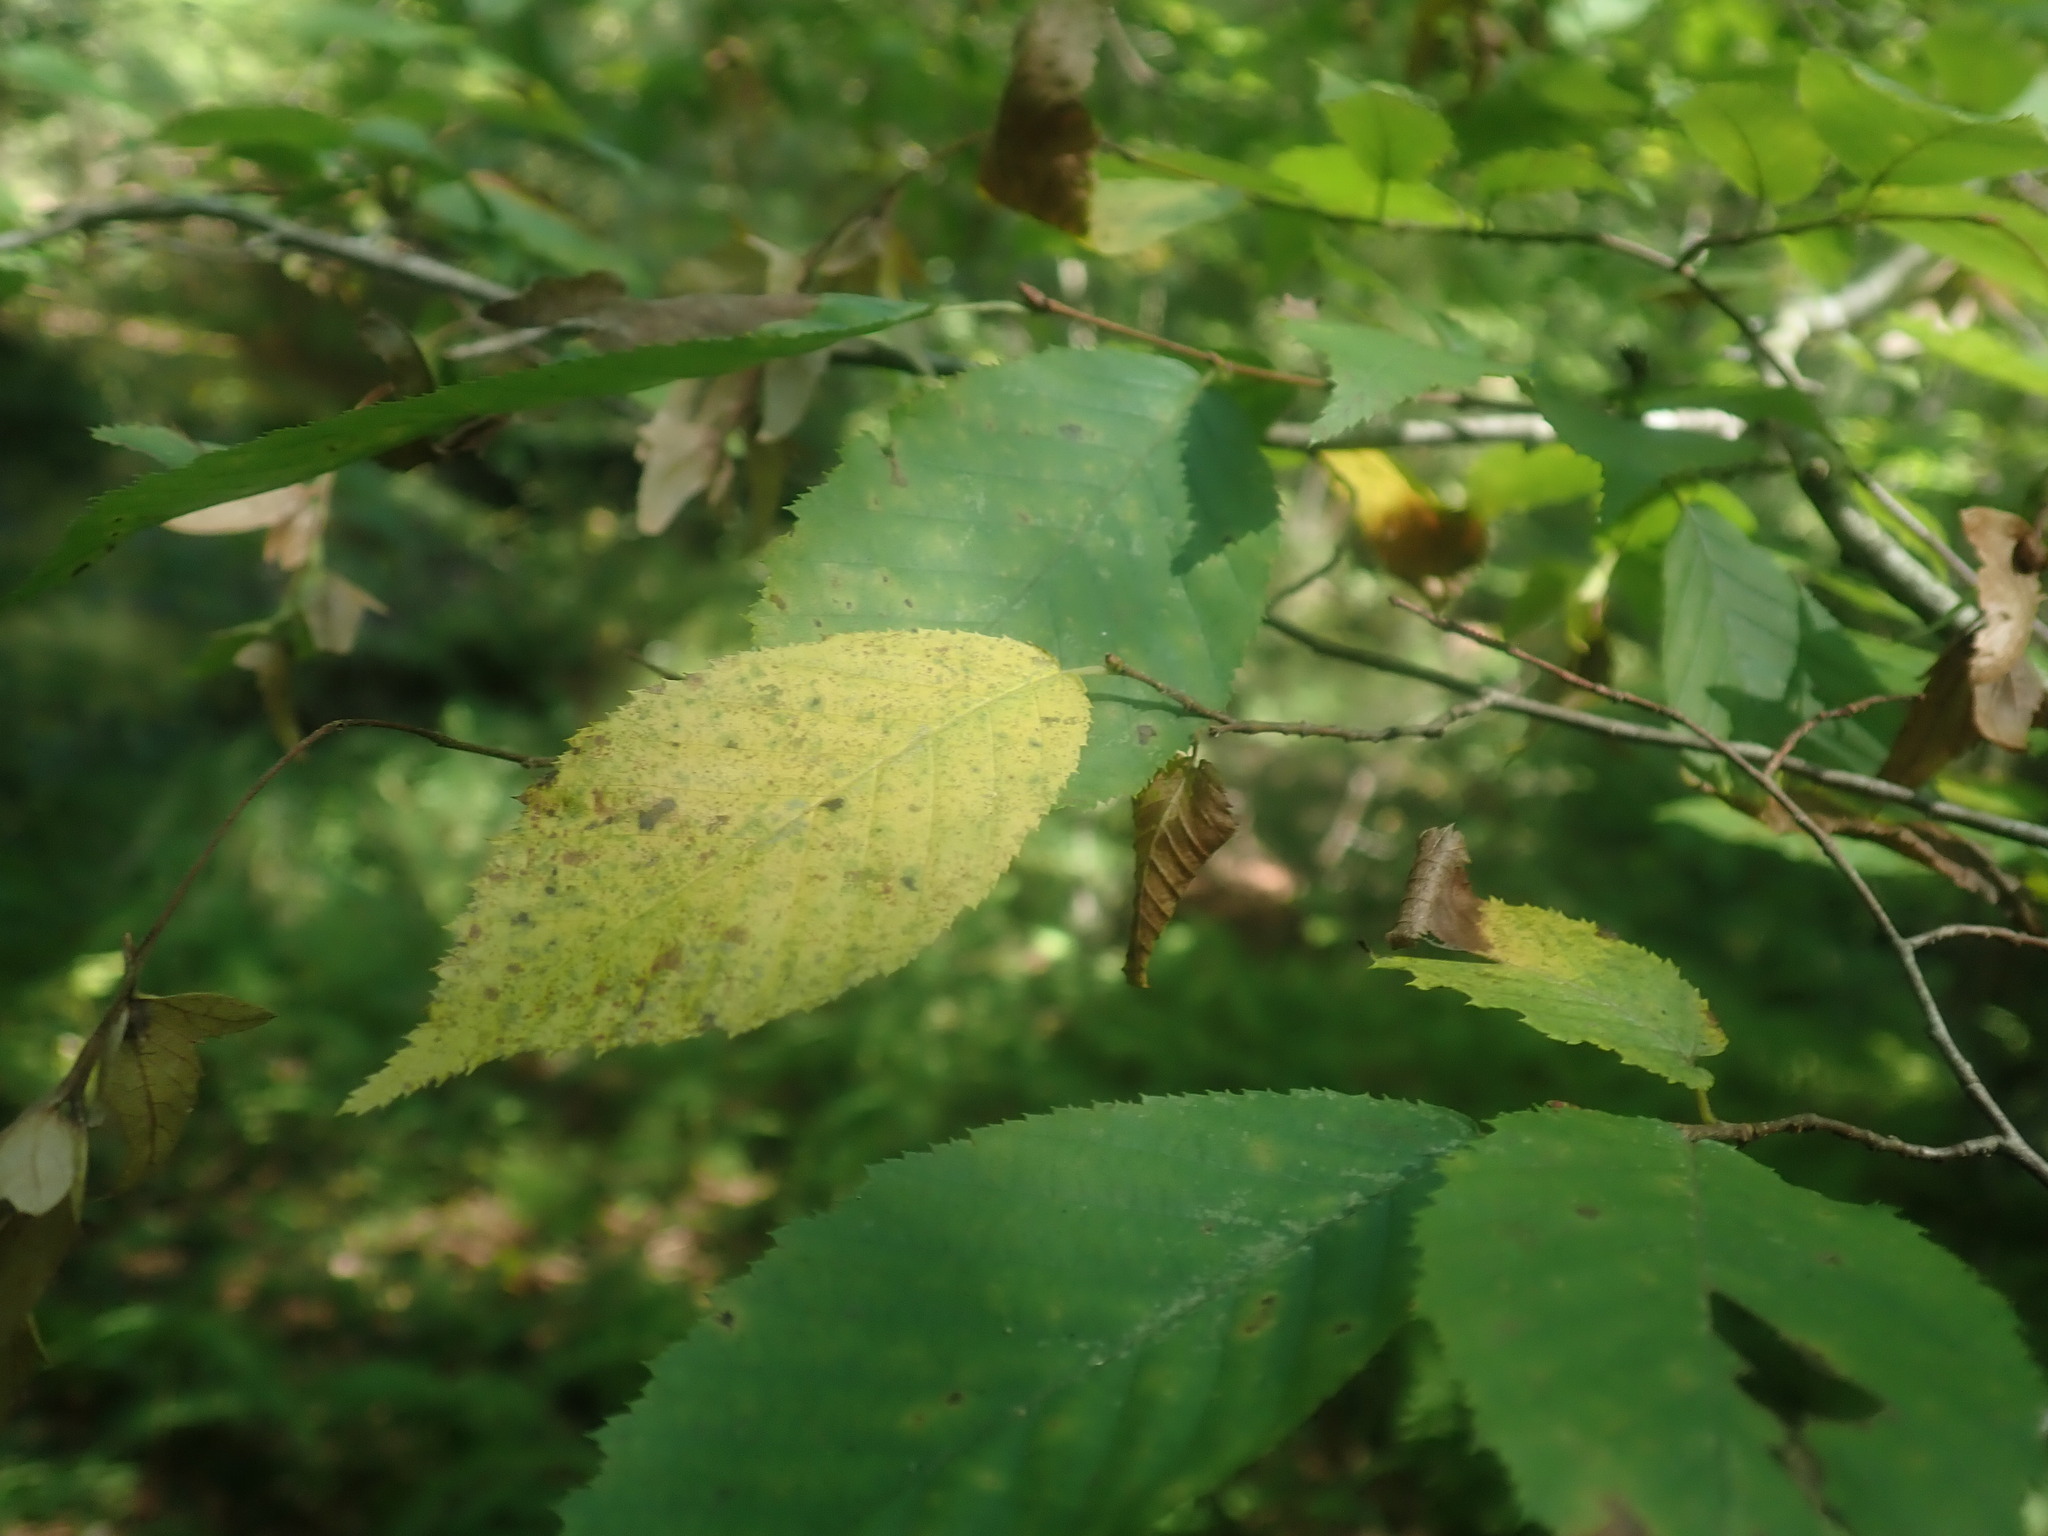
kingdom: Plantae
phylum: Tracheophyta
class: Magnoliopsida
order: Fagales
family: Betulaceae
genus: Carpinus
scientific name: Carpinus caroliniana
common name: American hornbeam
